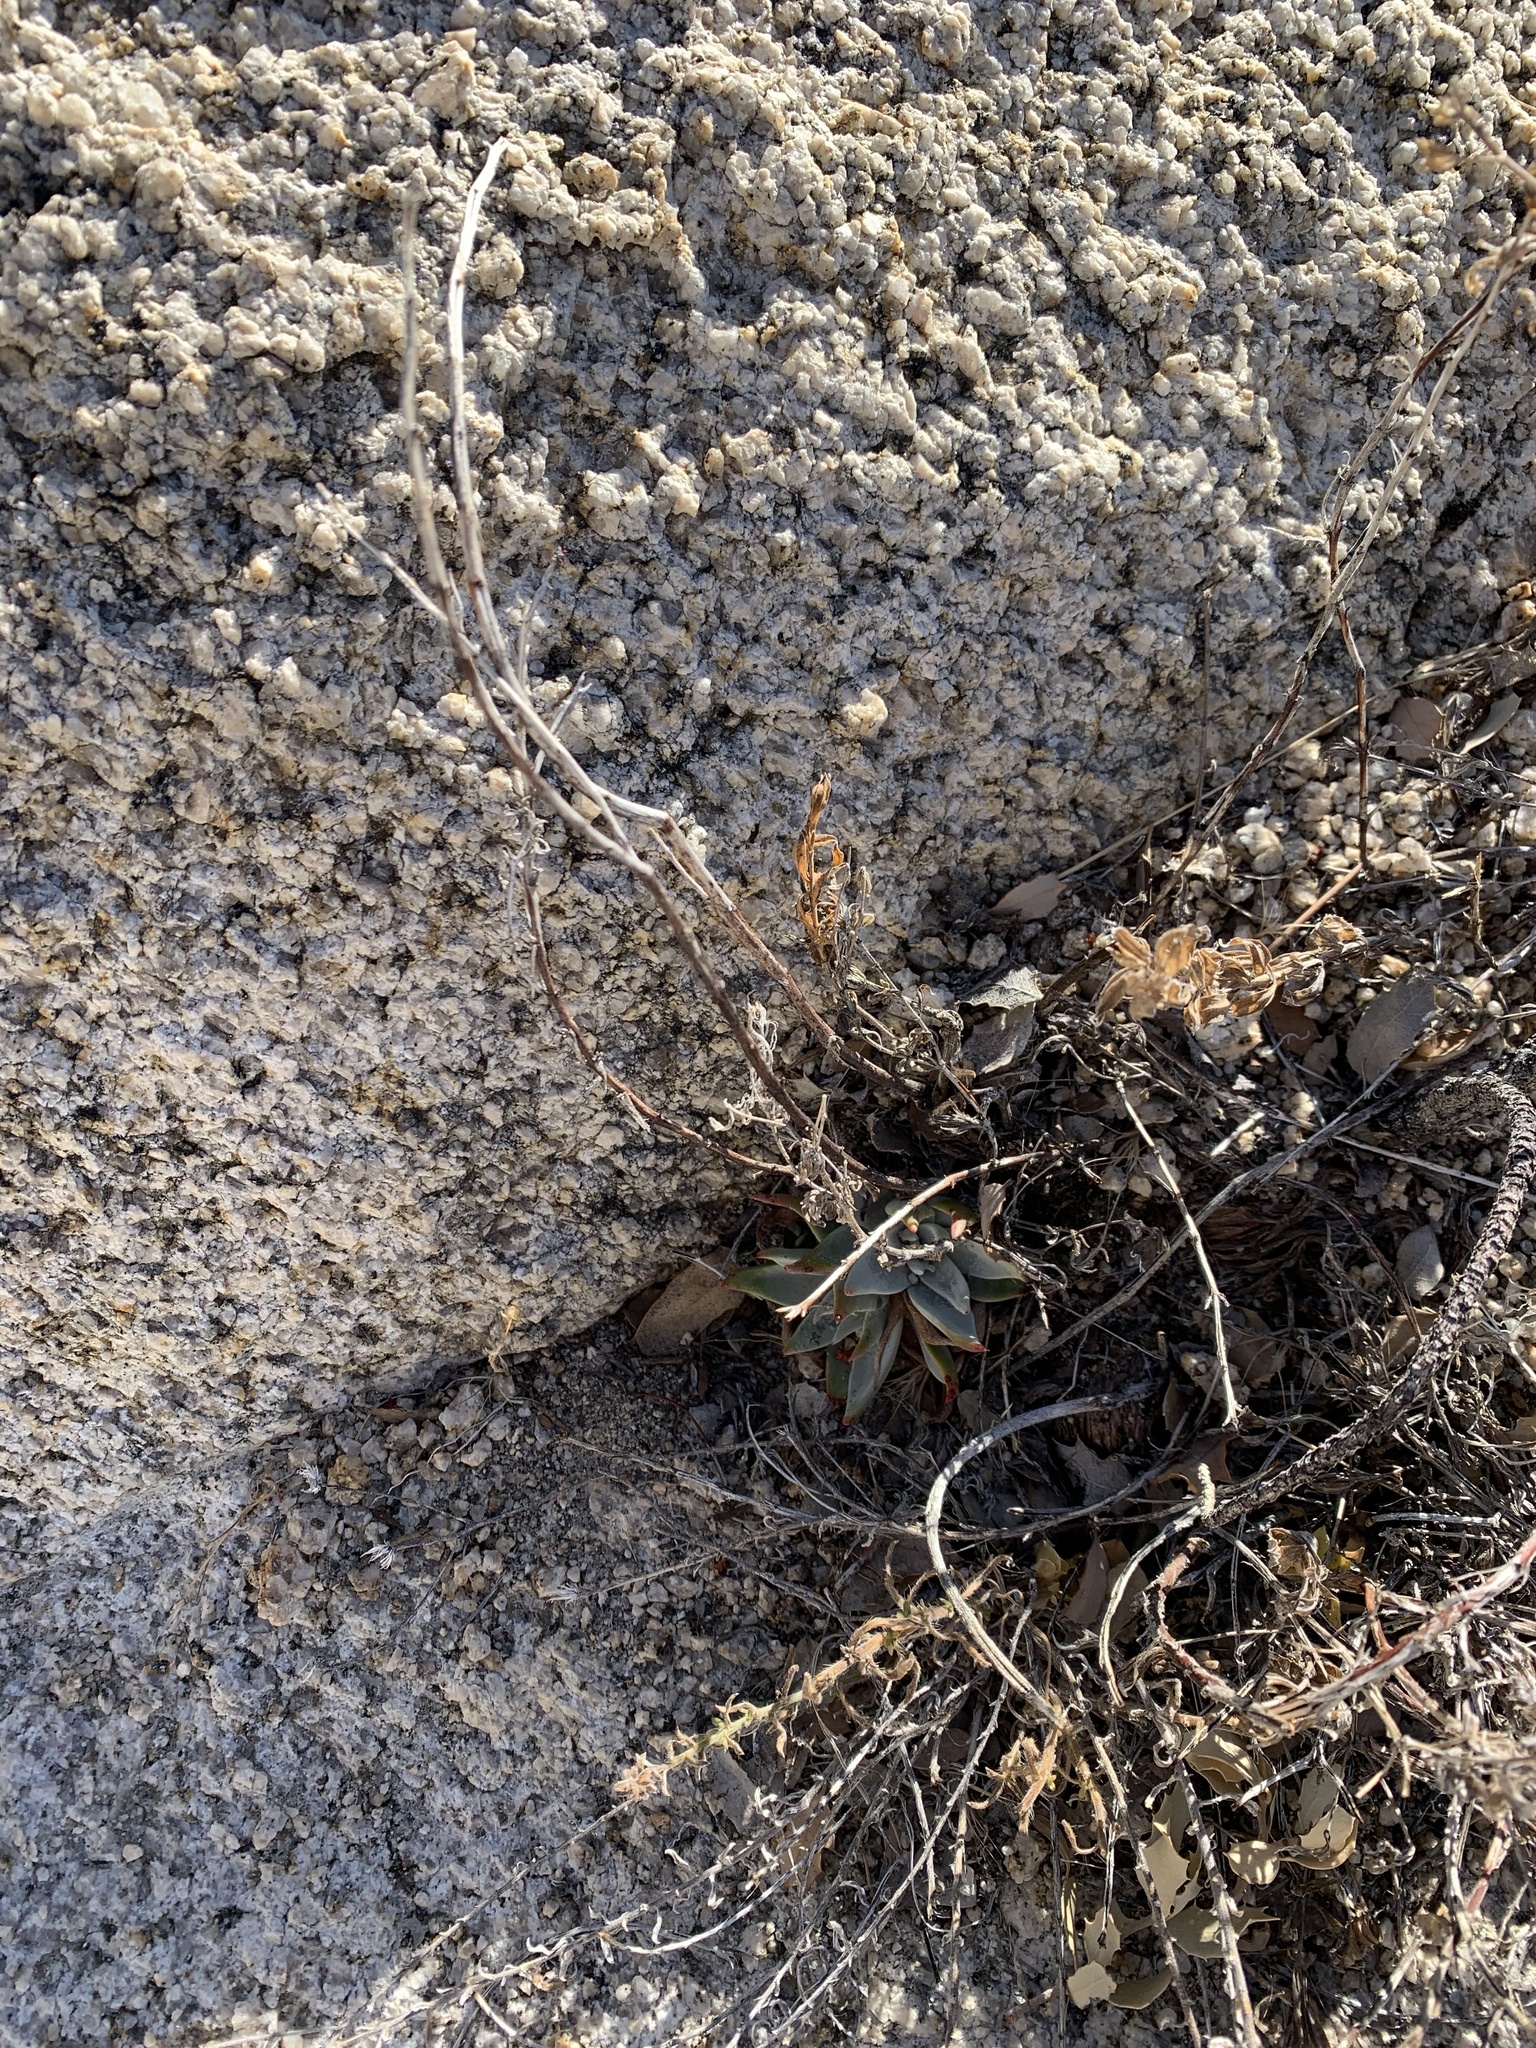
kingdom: Plantae
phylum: Tracheophyta
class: Magnoliopsida
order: Saxifragales
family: Crassulaceae
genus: Dudleya
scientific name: Dudleya saxosa
